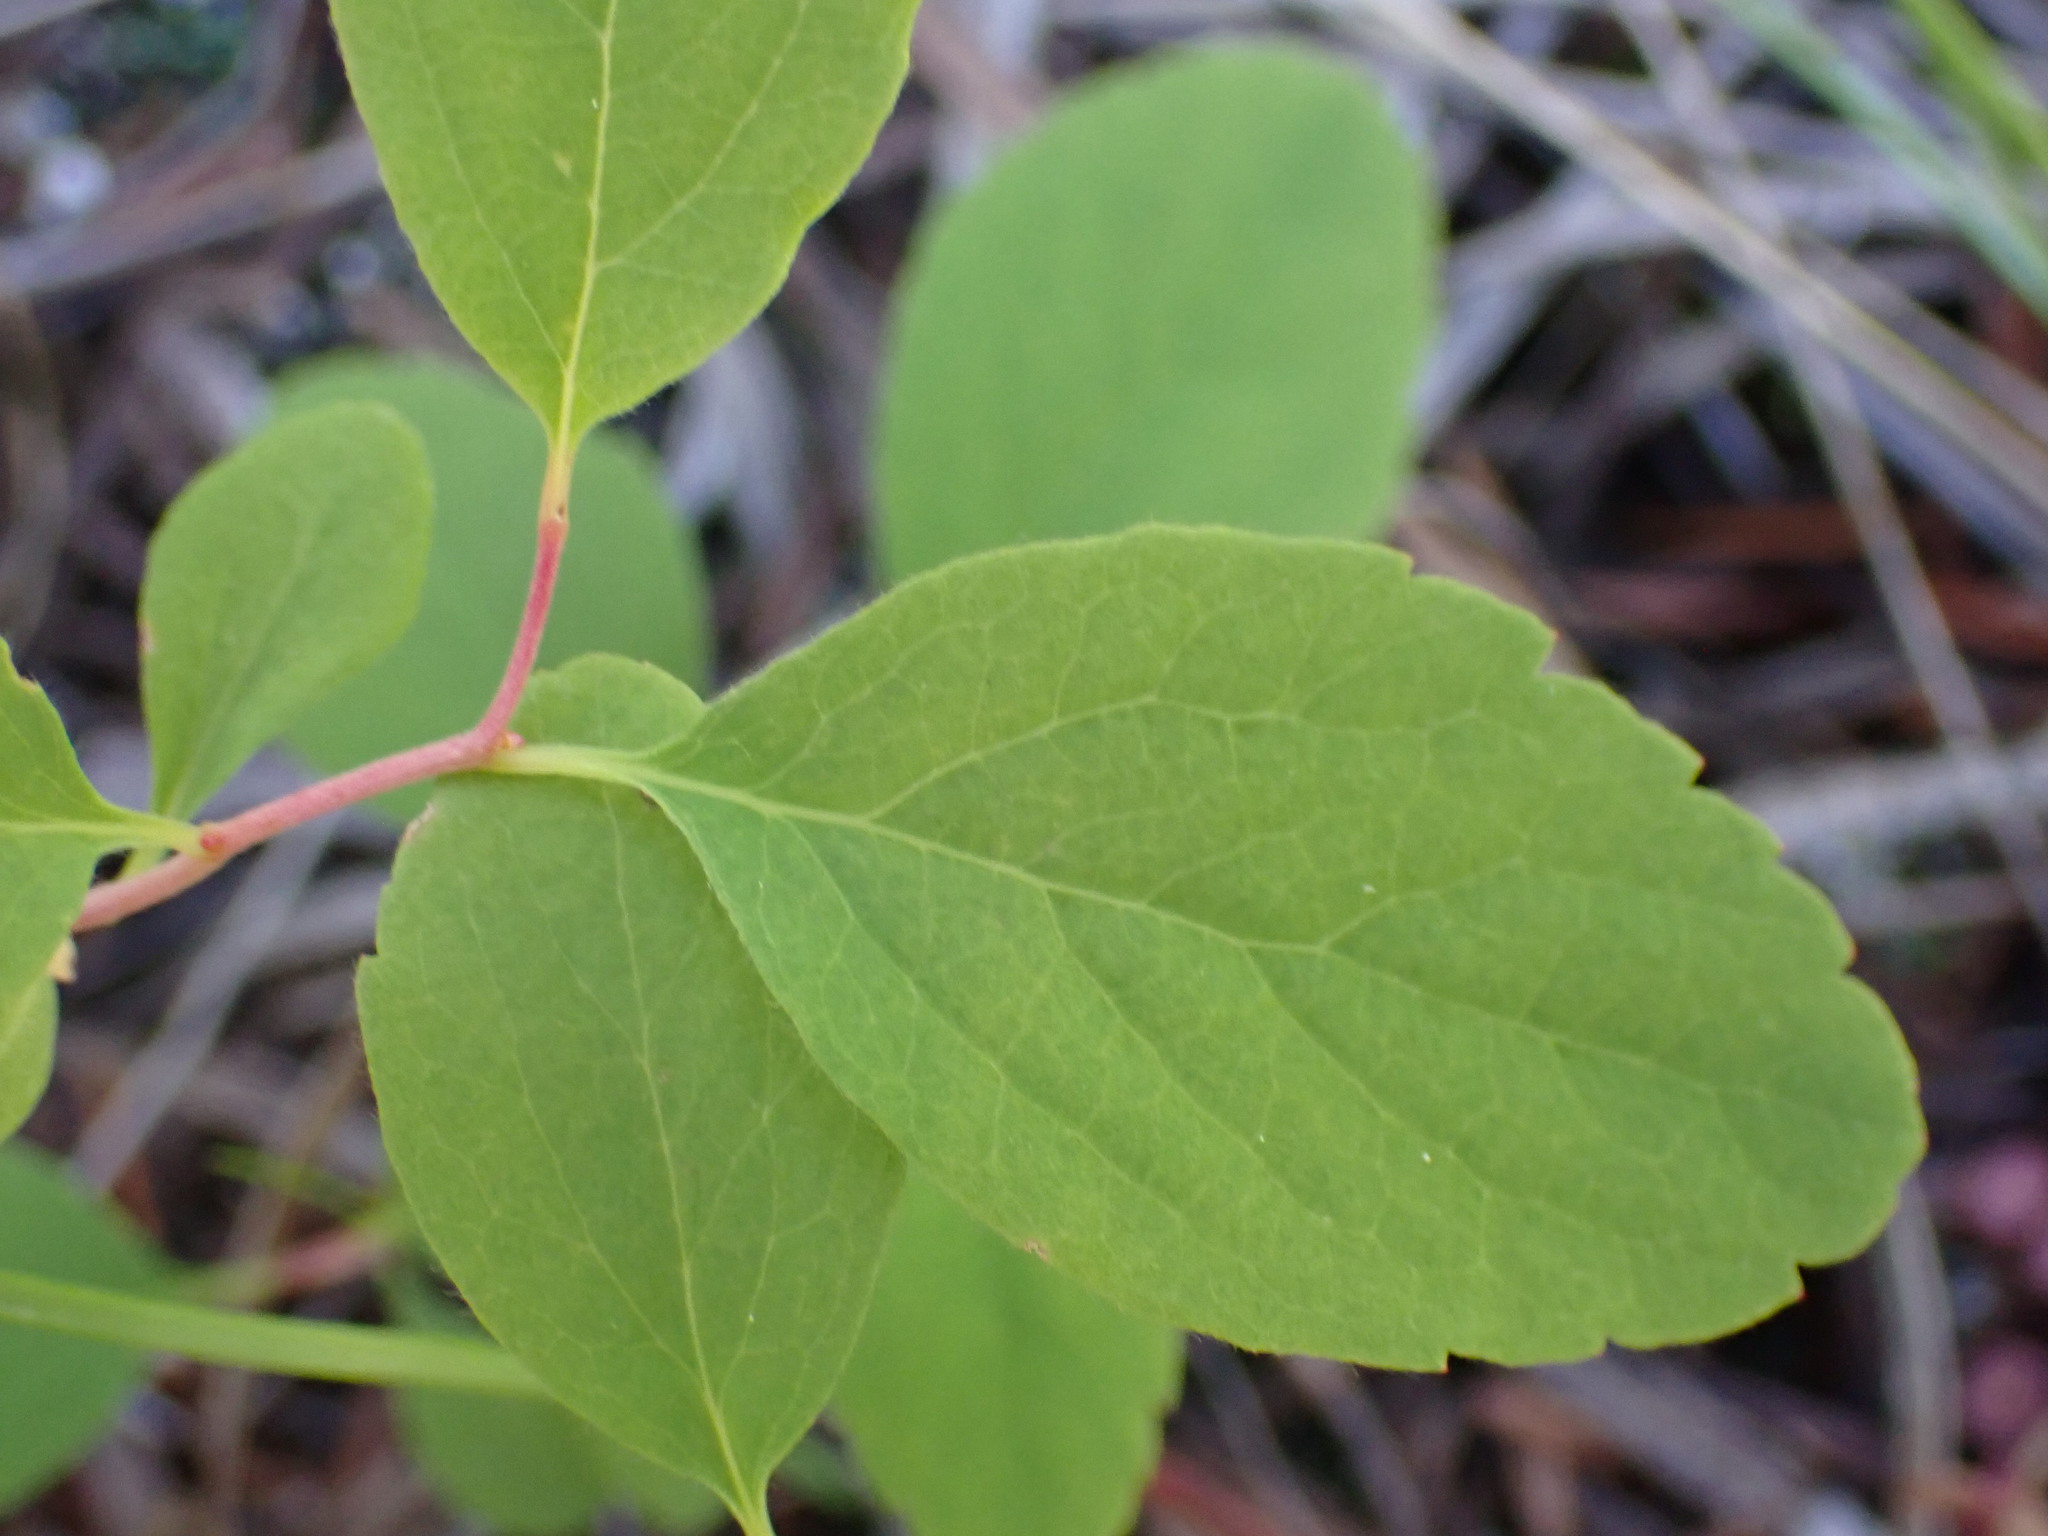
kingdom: Plantae
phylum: Tracheophyta
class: Magnoliopsida
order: Rosales
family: Rosaceae
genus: Spiraea
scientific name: Spiraea lucida
